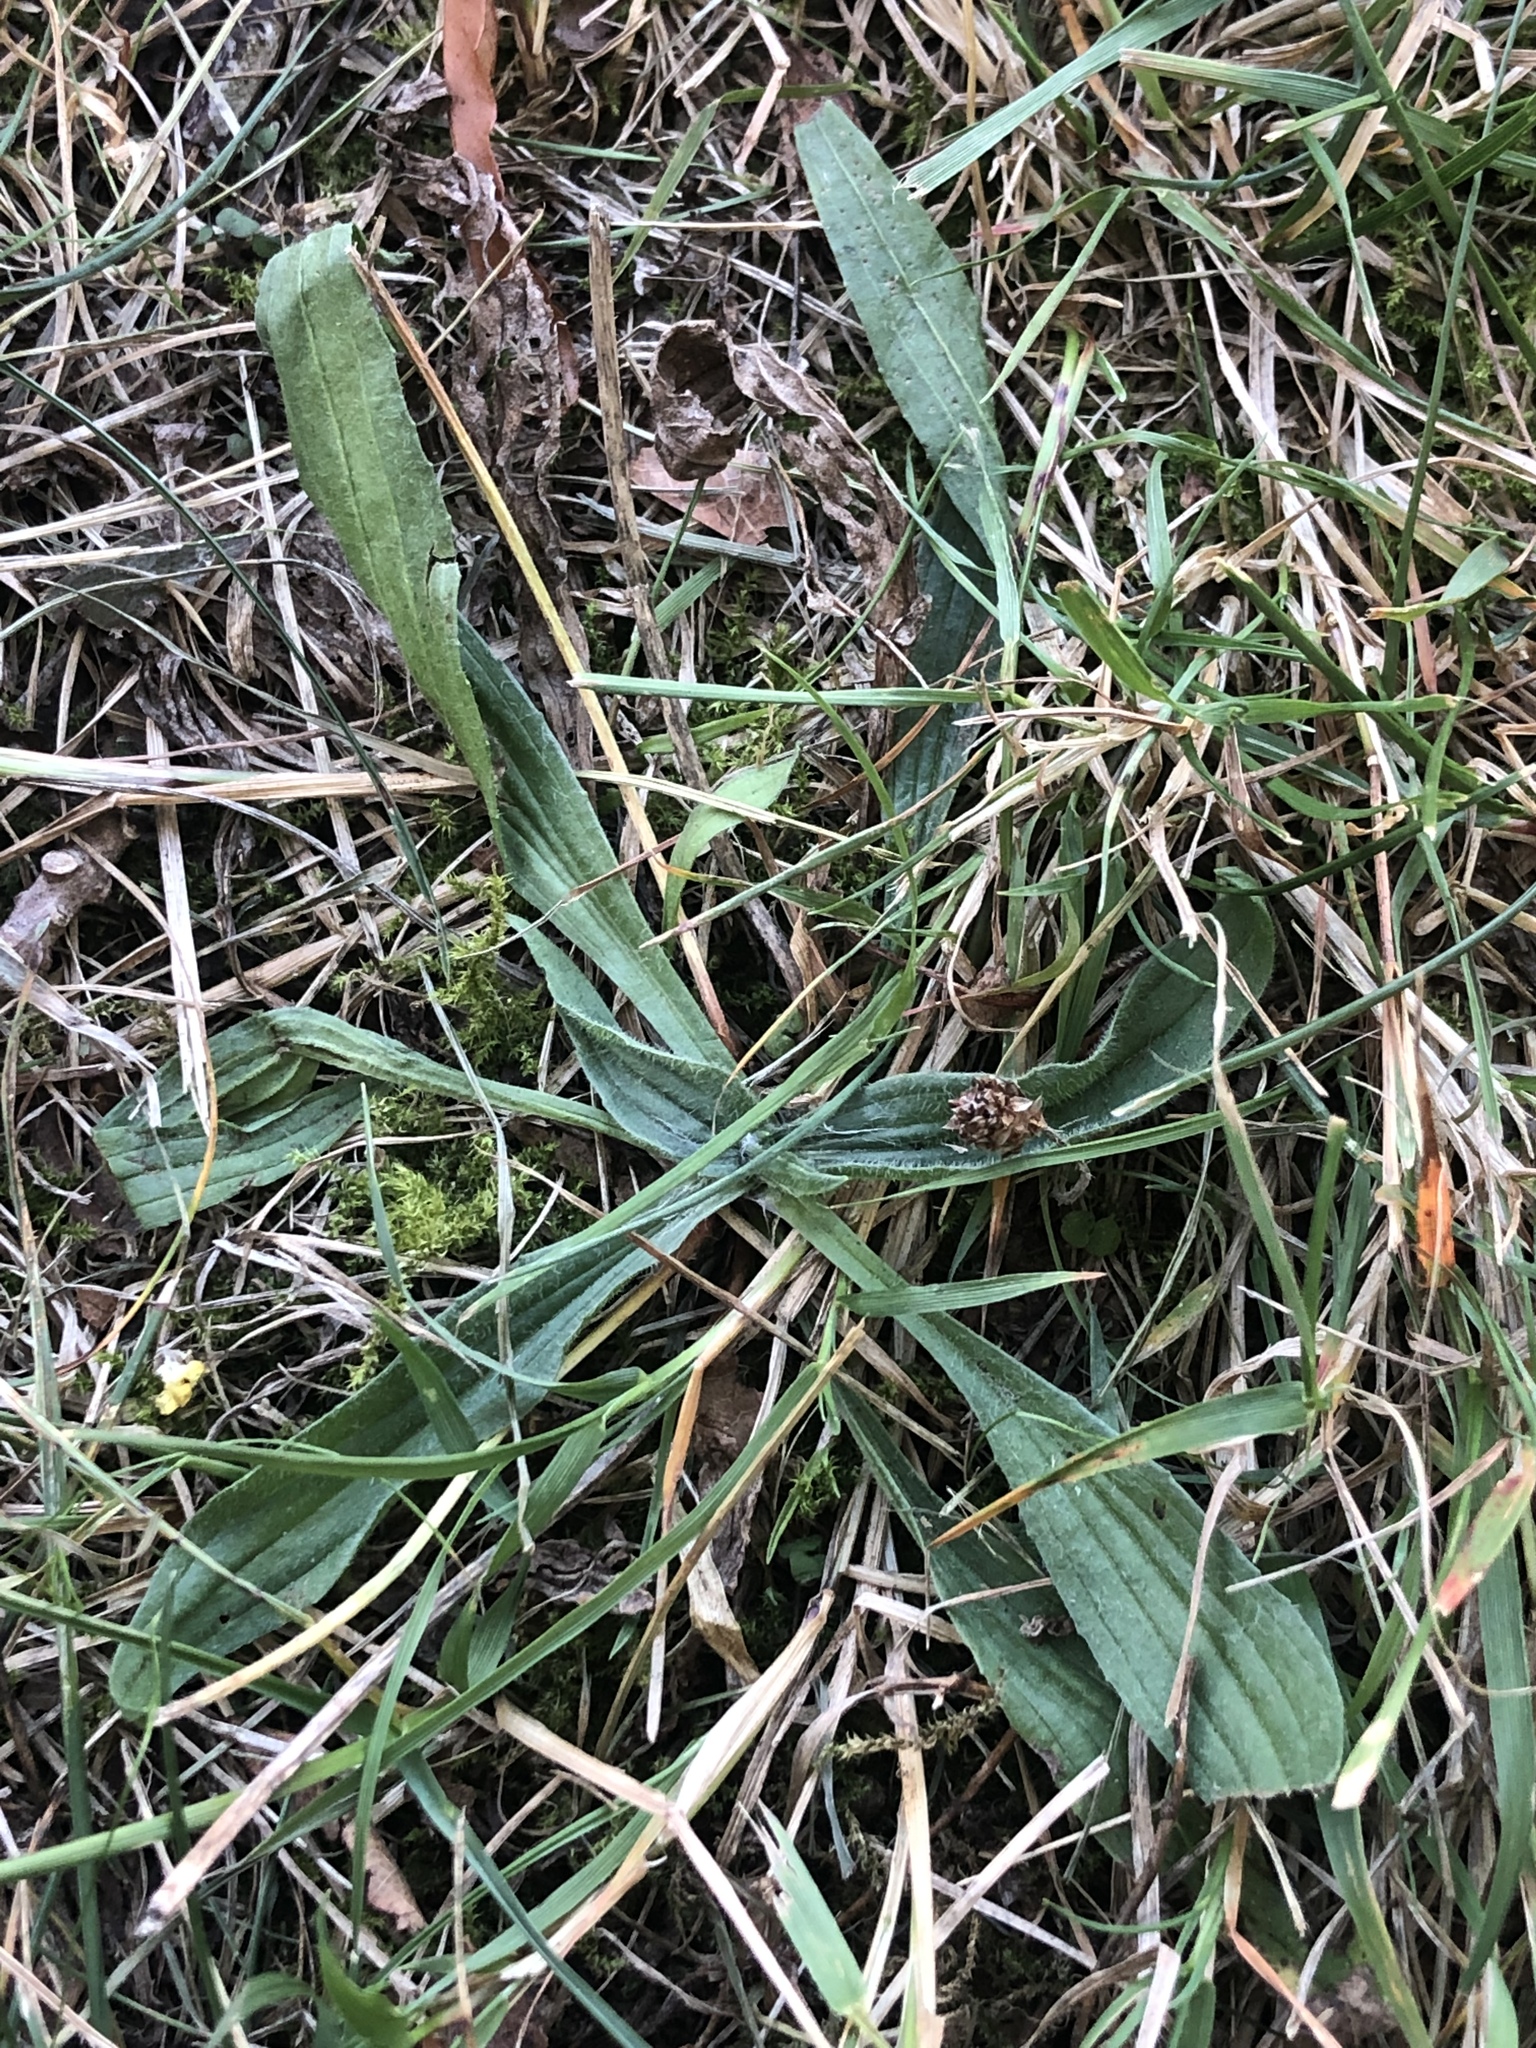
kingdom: Plantae
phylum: Tracheophyta
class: Magnoliopsida
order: Lamiales
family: Plantaginaceae
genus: Plantago
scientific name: Plantago lanceolata
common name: Ribwort plantain
